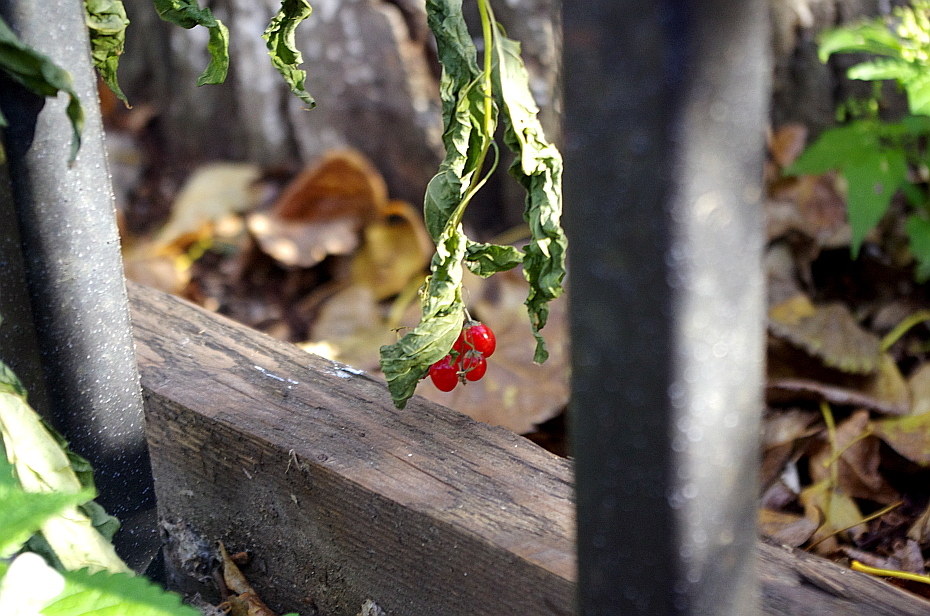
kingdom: Plantae
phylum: Tracheophyta
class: Magnoliopsida
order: Solanales
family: Solanaceae
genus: Solanum
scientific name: Solanum dulcamara
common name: Climbing nightshade
